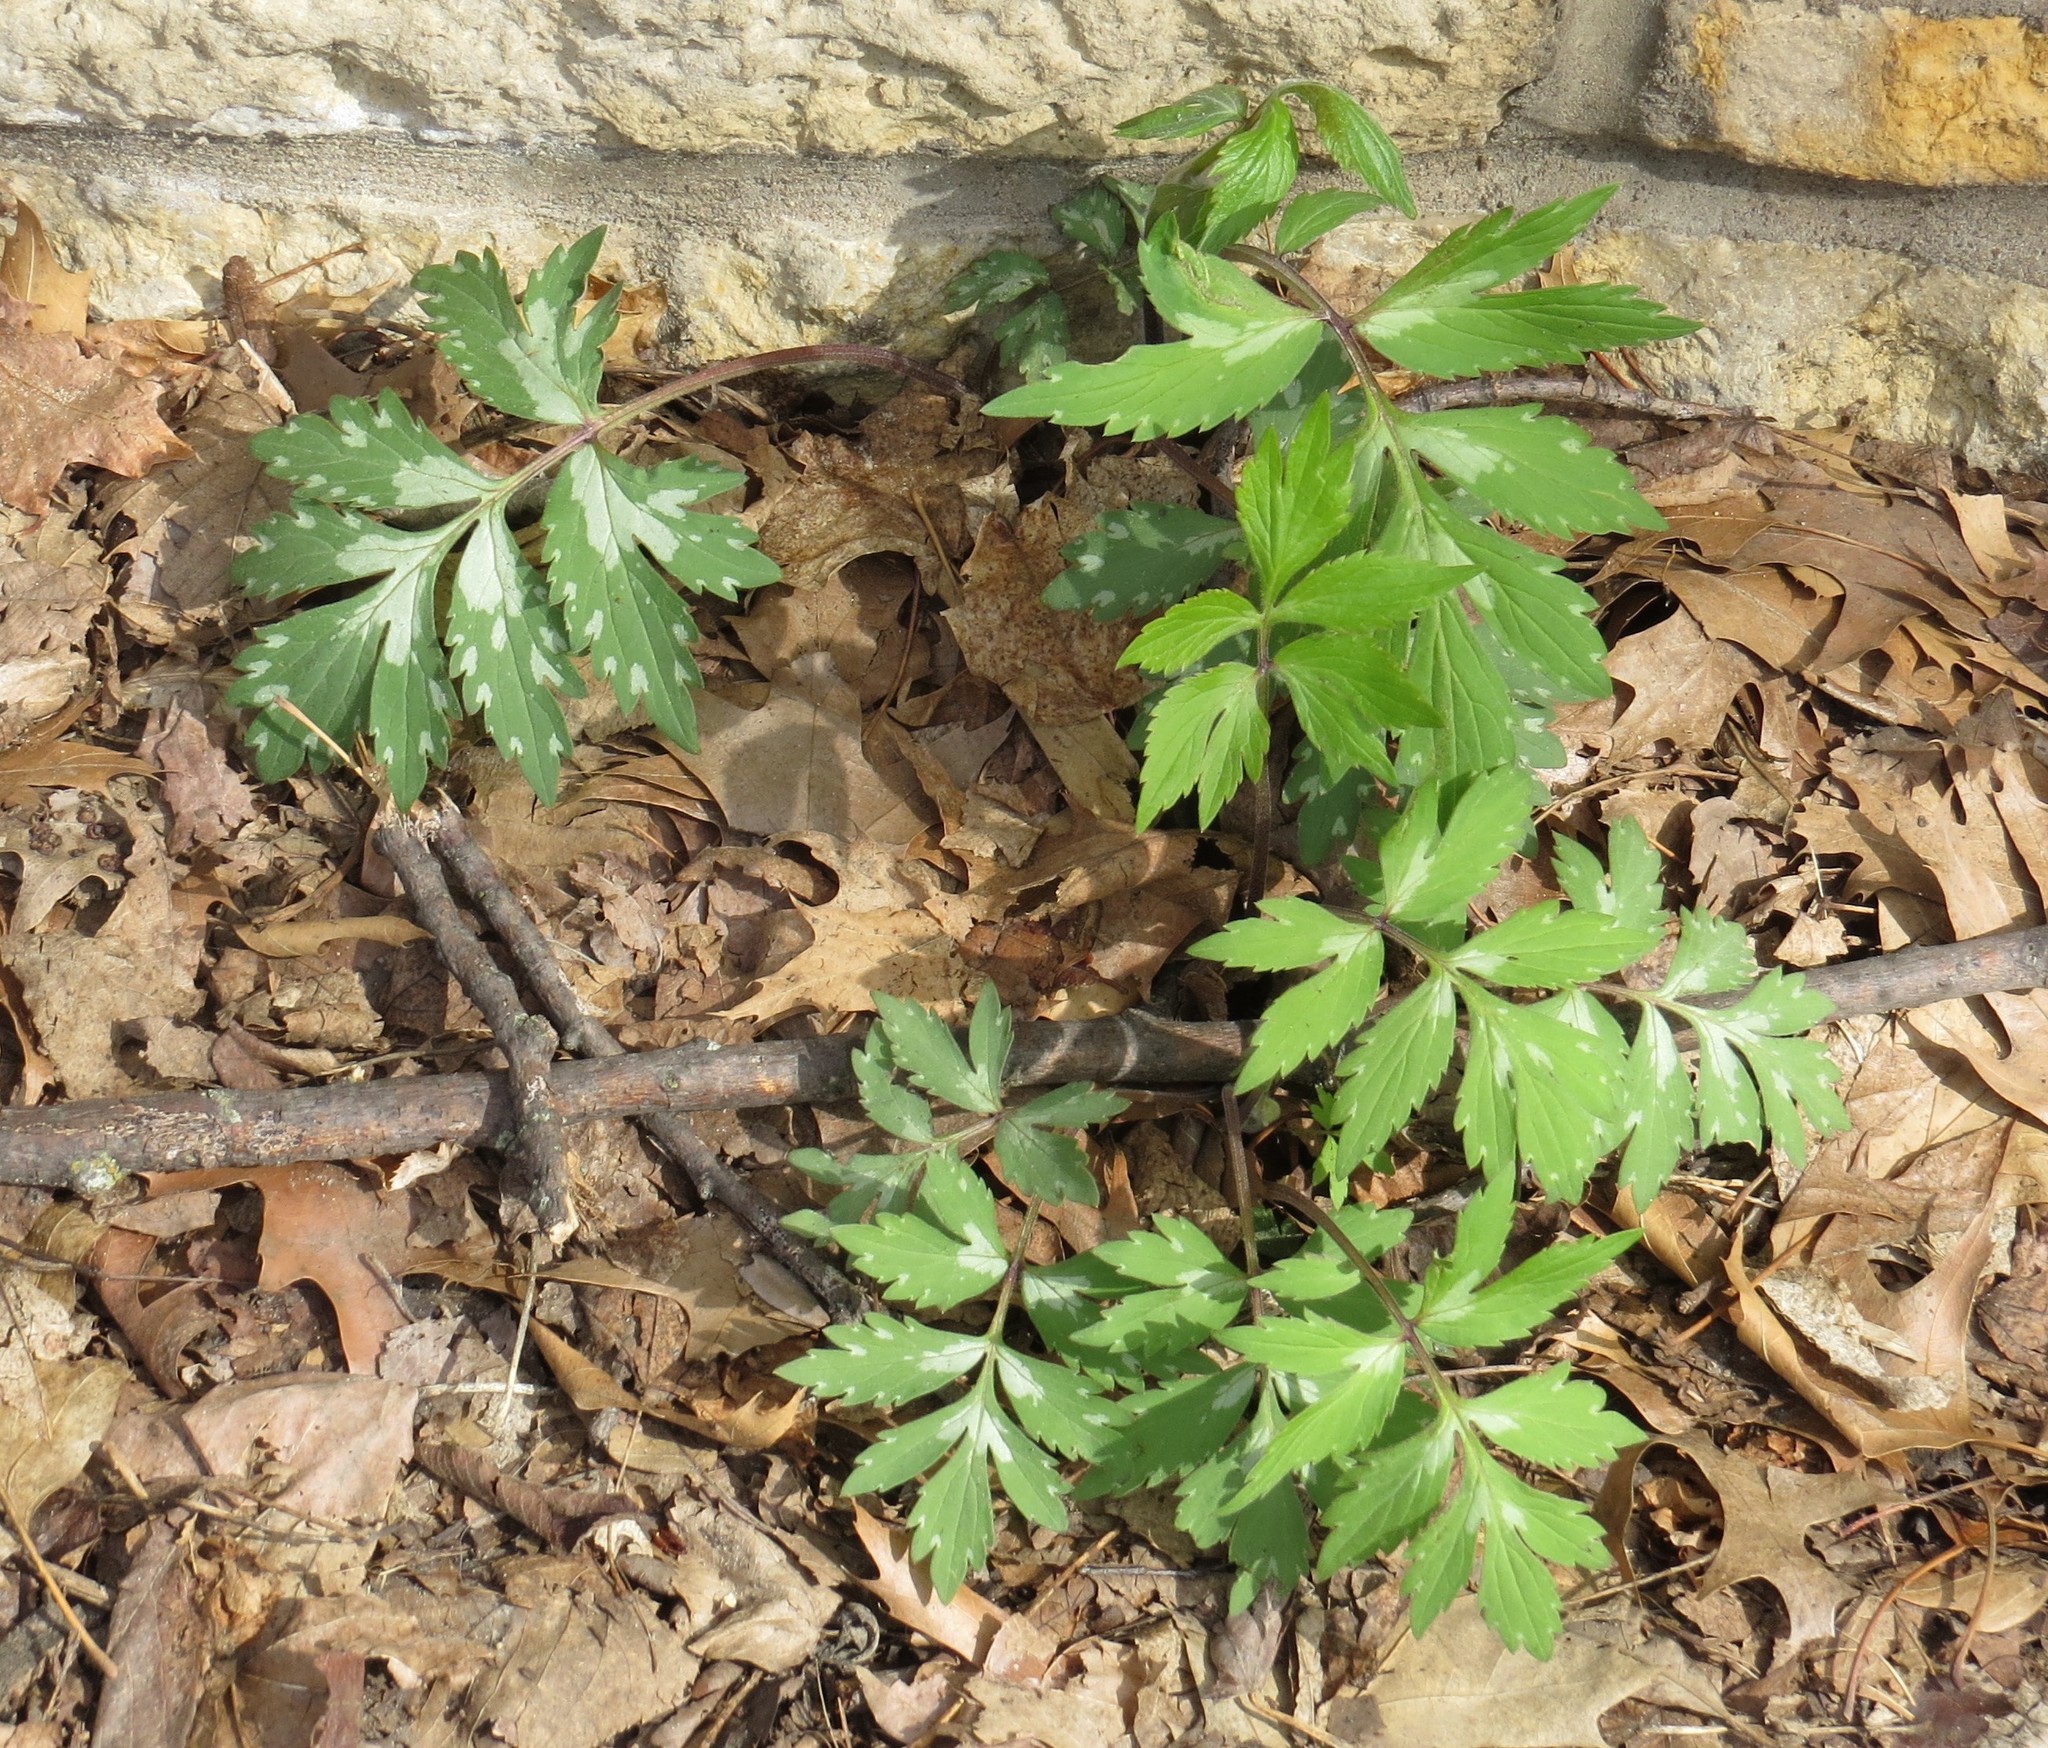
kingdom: Plantae
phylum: Tracheophyta
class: Magnoliopsida
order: Boraginales
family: Hydrophyllaceae
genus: Hydrophyllum
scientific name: Hydrophyllum virginianum
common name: Virginia waterleaf
